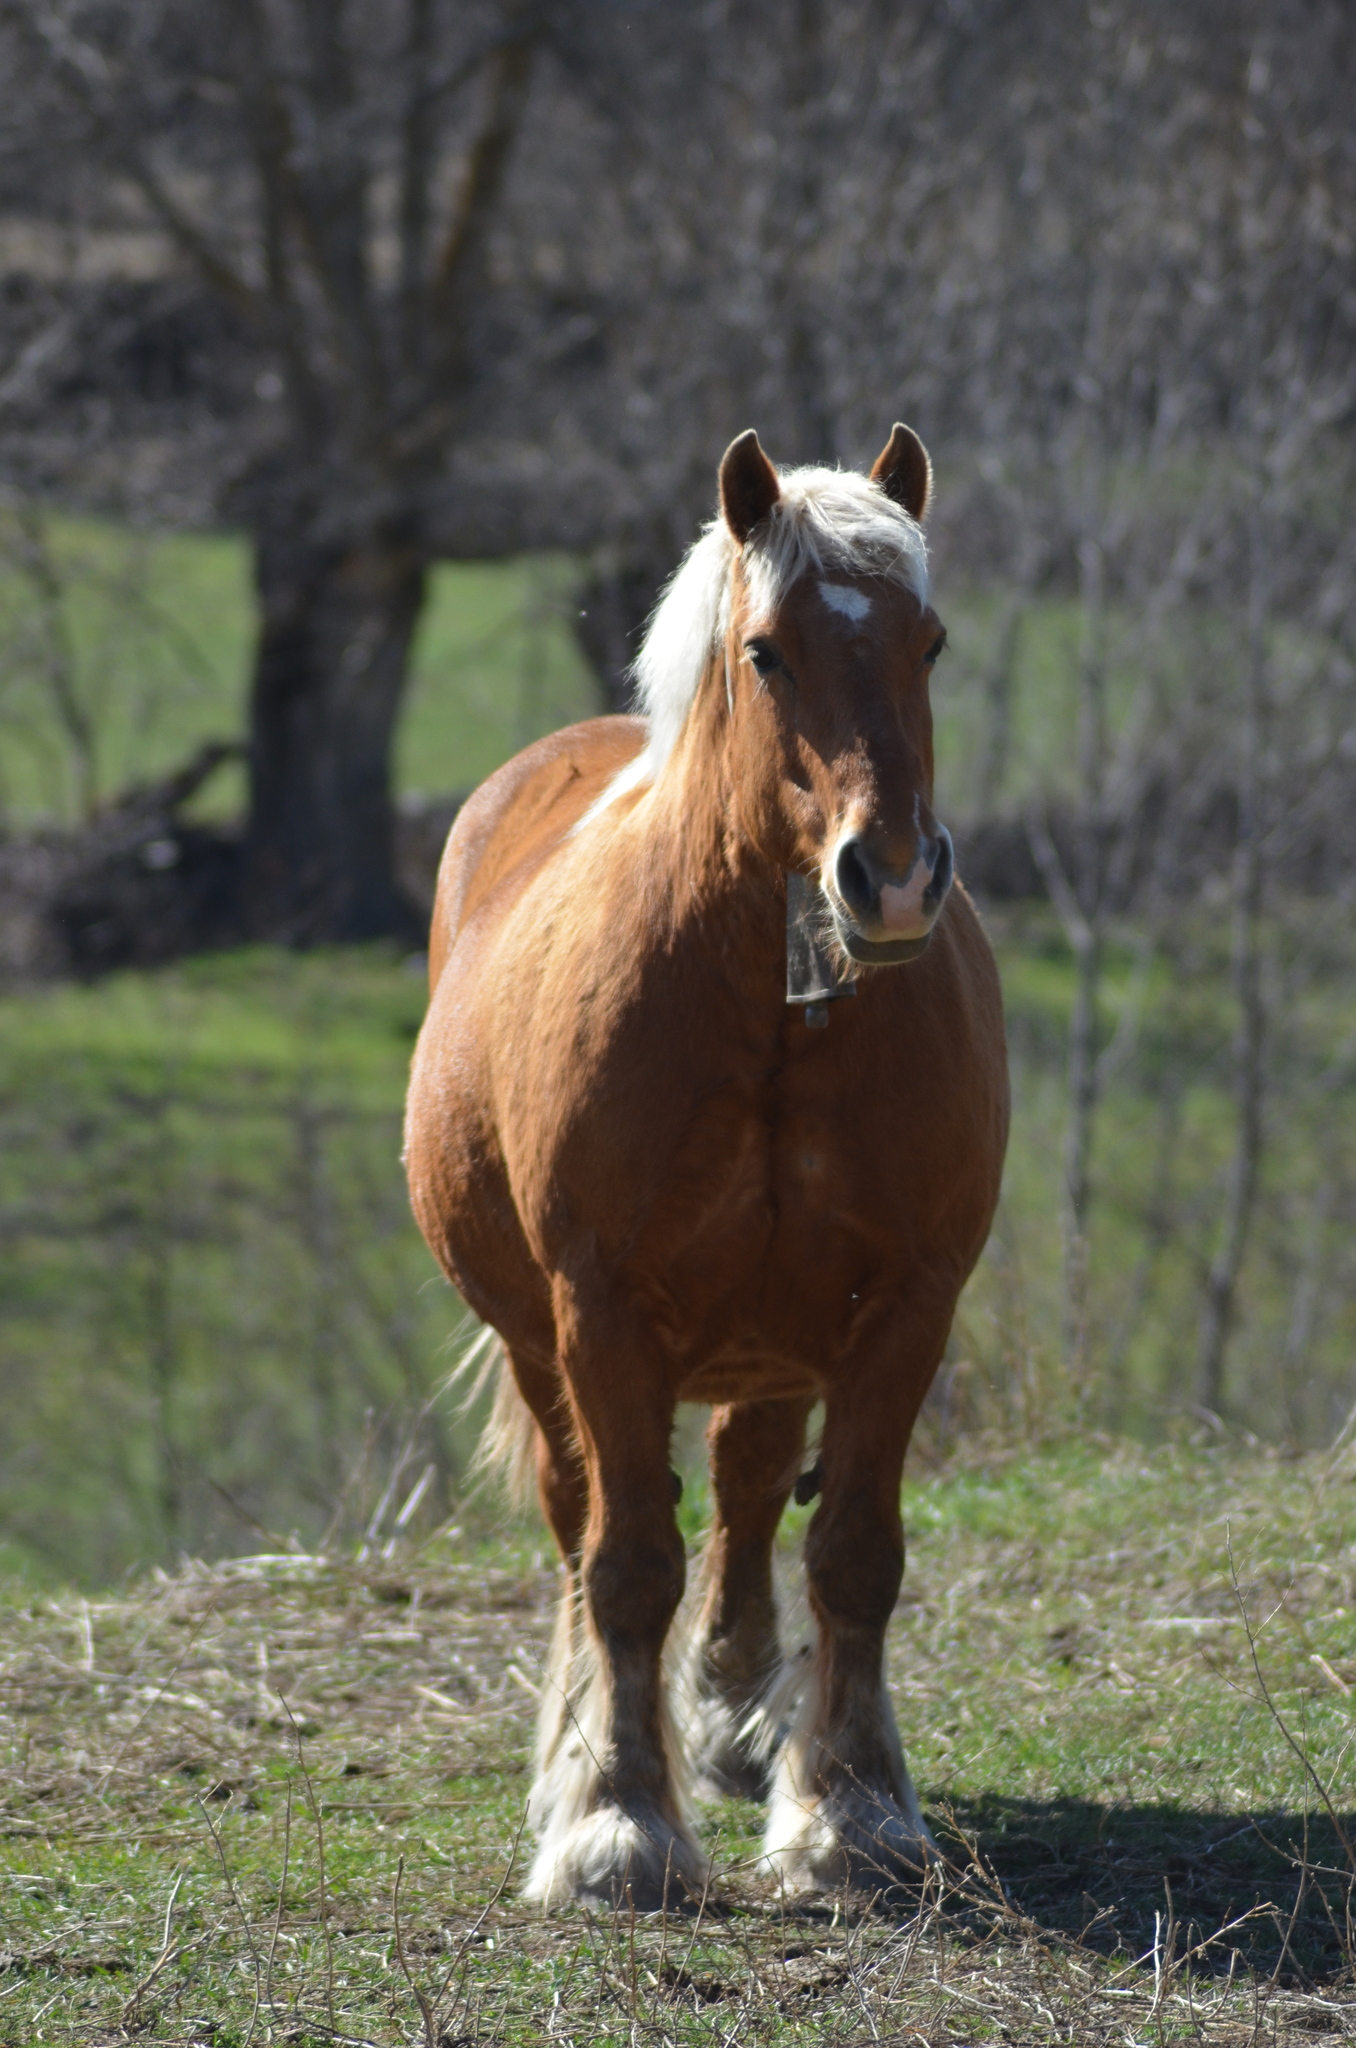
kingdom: Animalia
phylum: Chordata
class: Mammalia
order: Perissodactyla
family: Equidae
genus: Equus
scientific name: Equus caballus
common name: Horse
